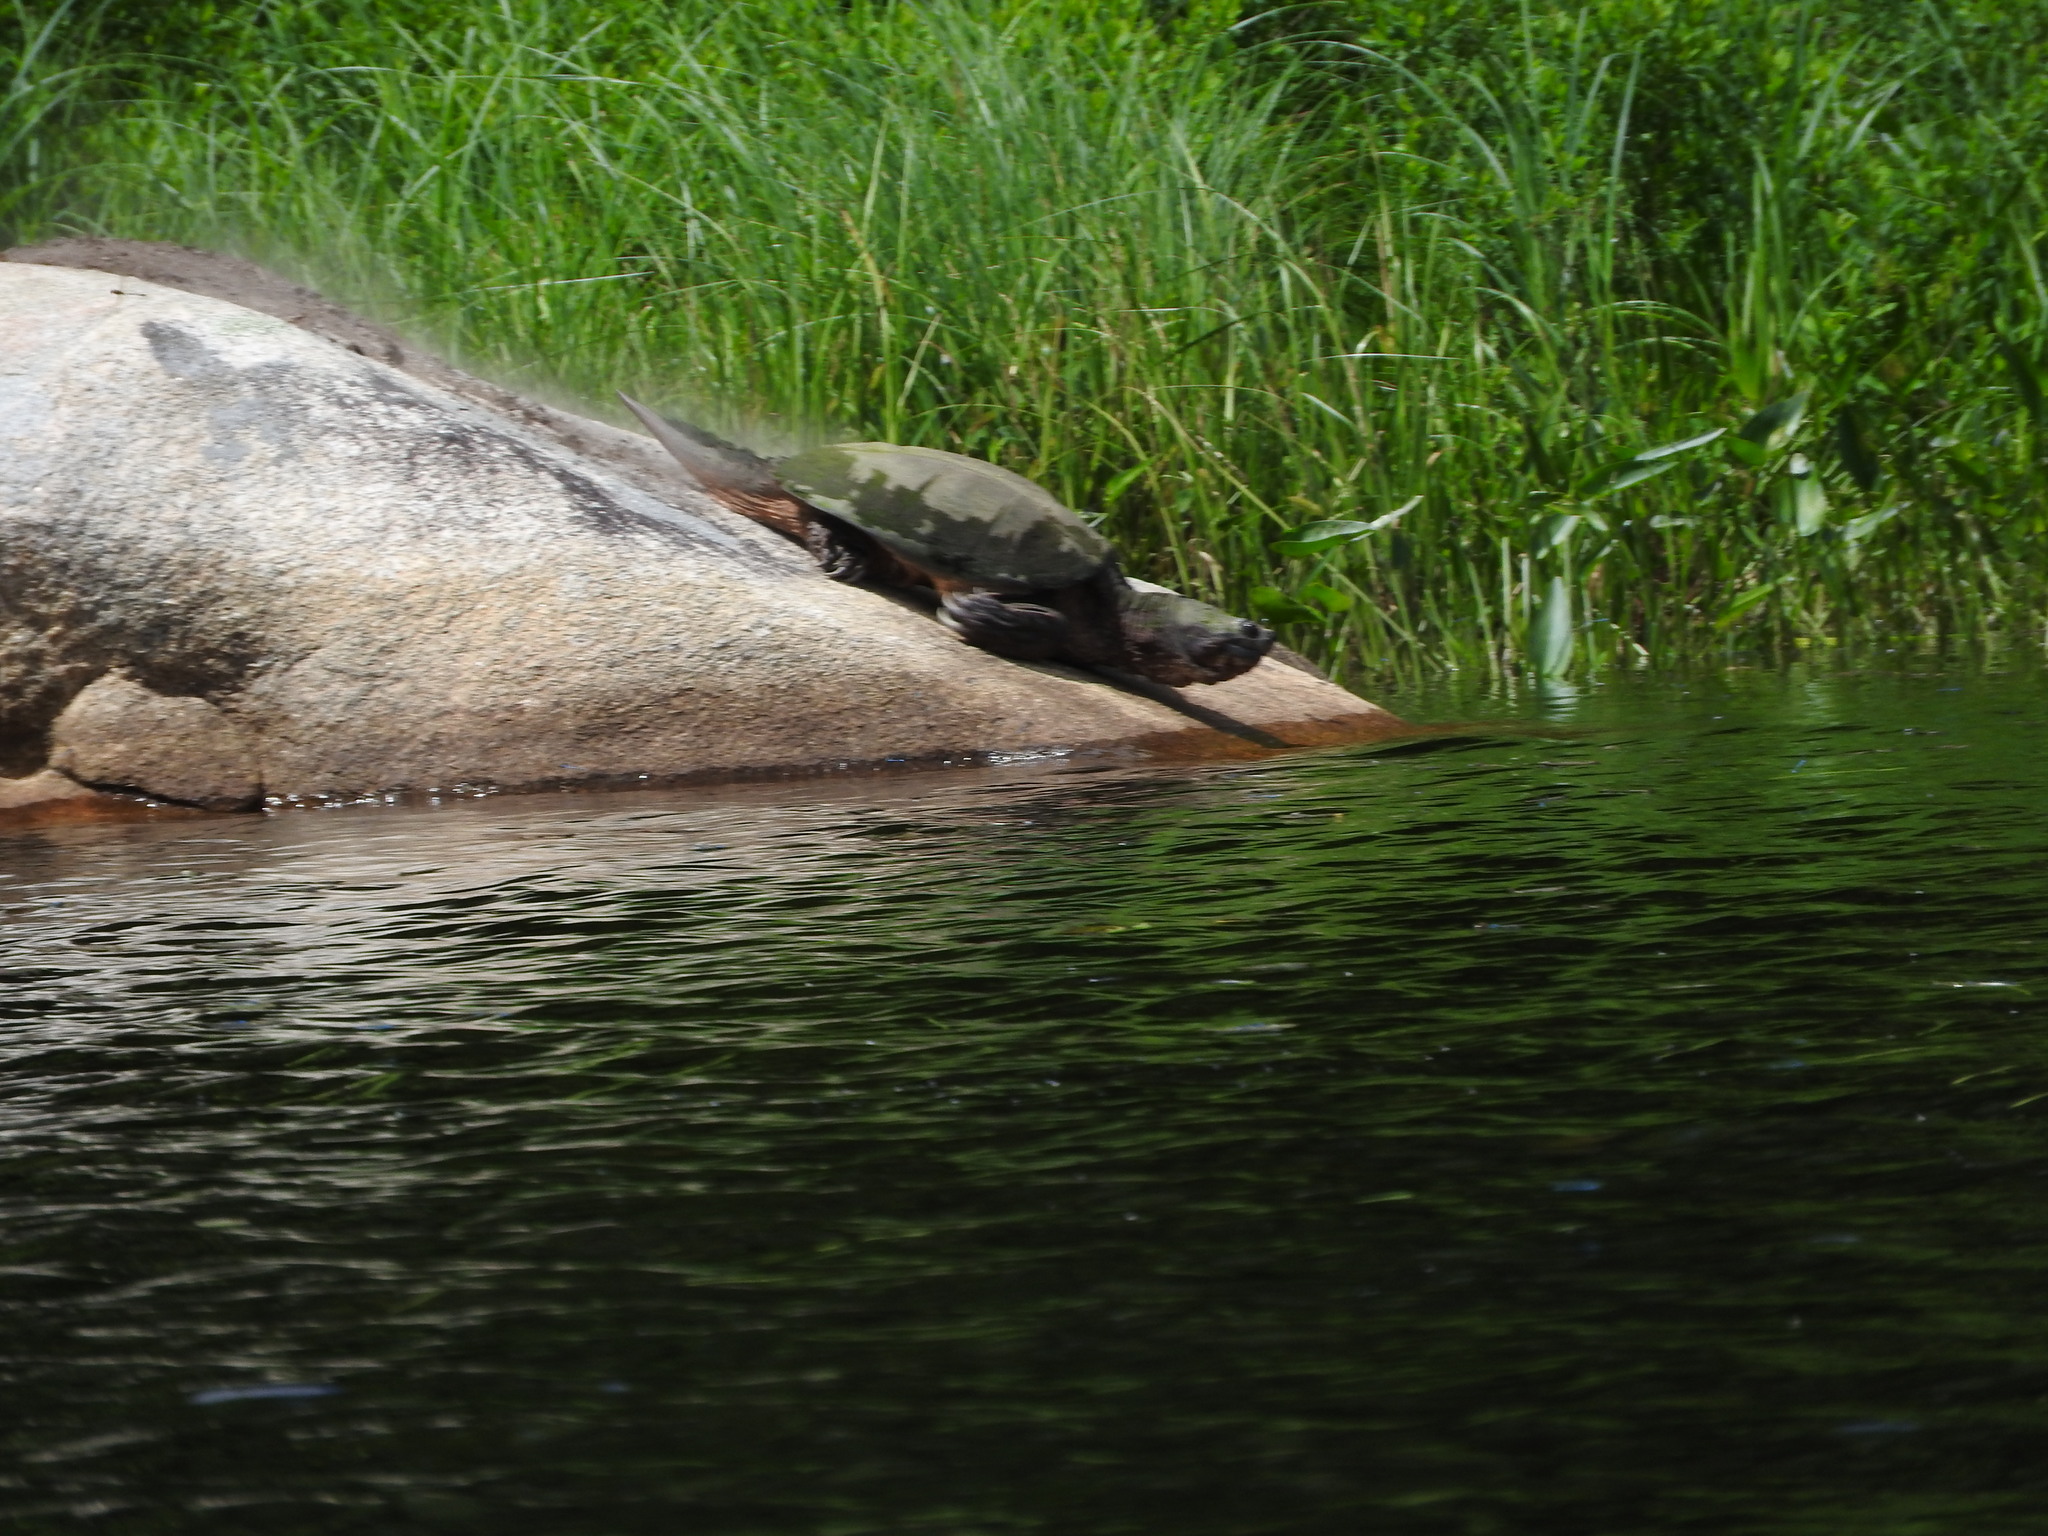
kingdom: Animalia
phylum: Chordata
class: Testudines
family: Chelydridae
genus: Chelydra
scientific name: Chelydra serpentina
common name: Common snapping turtle
